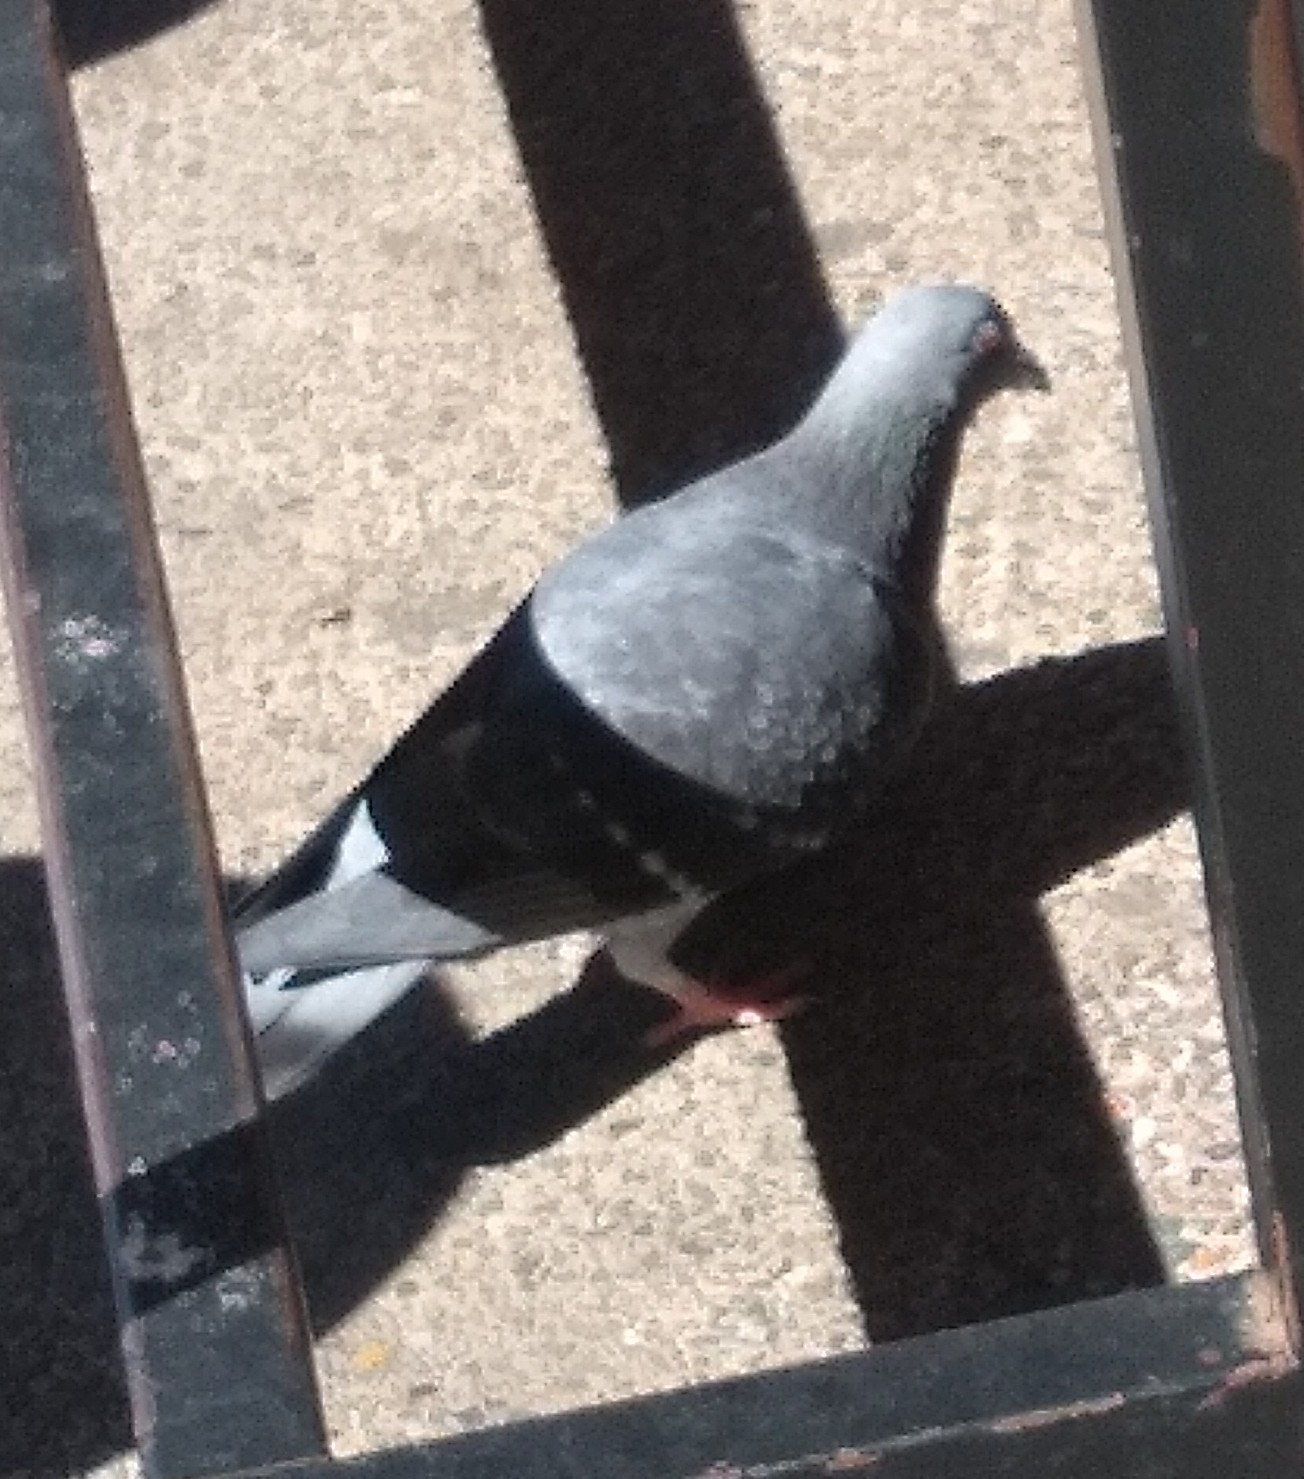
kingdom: Animalia
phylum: Chordata
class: Aves
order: Columbiformes
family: Columbidae
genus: Columba
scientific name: Columba livia
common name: Rock pigeon
